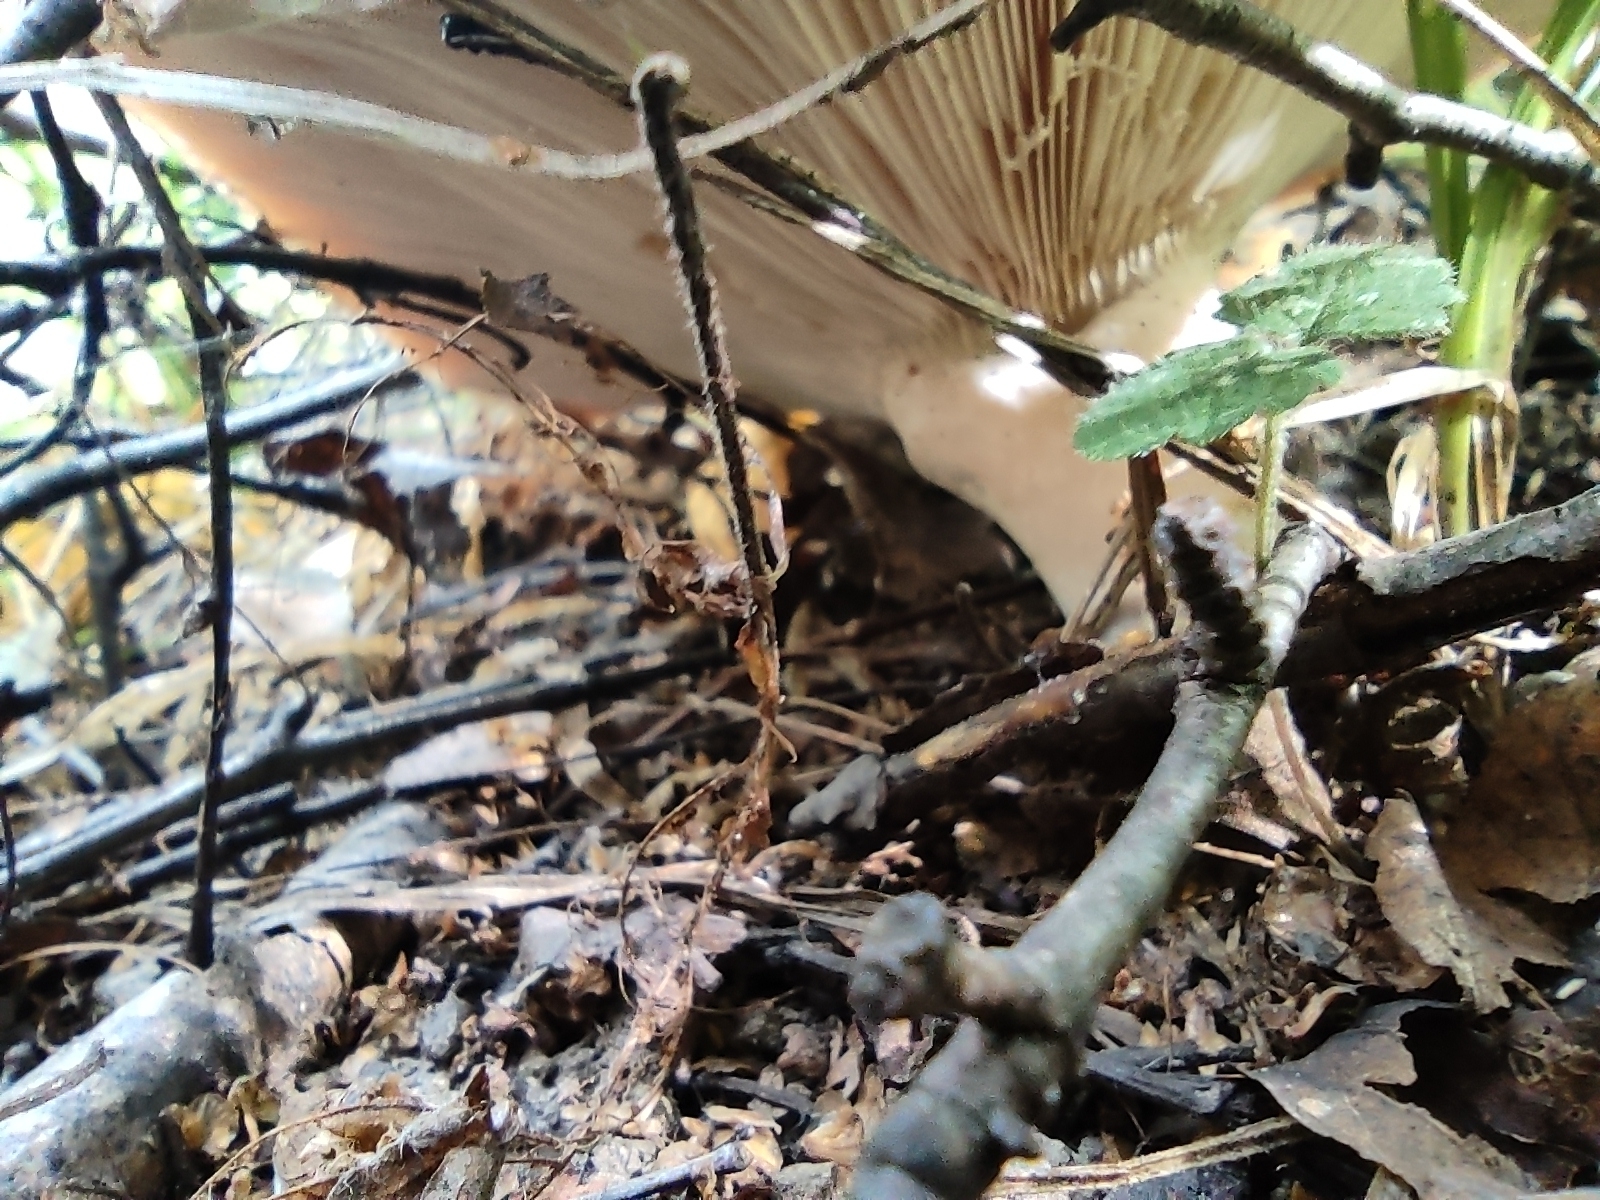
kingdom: Fungi
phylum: Basidiomycota
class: Agaricomycetes
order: Russulales
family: Russulaceae
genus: Lactarius
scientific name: Lactarius torminosus
